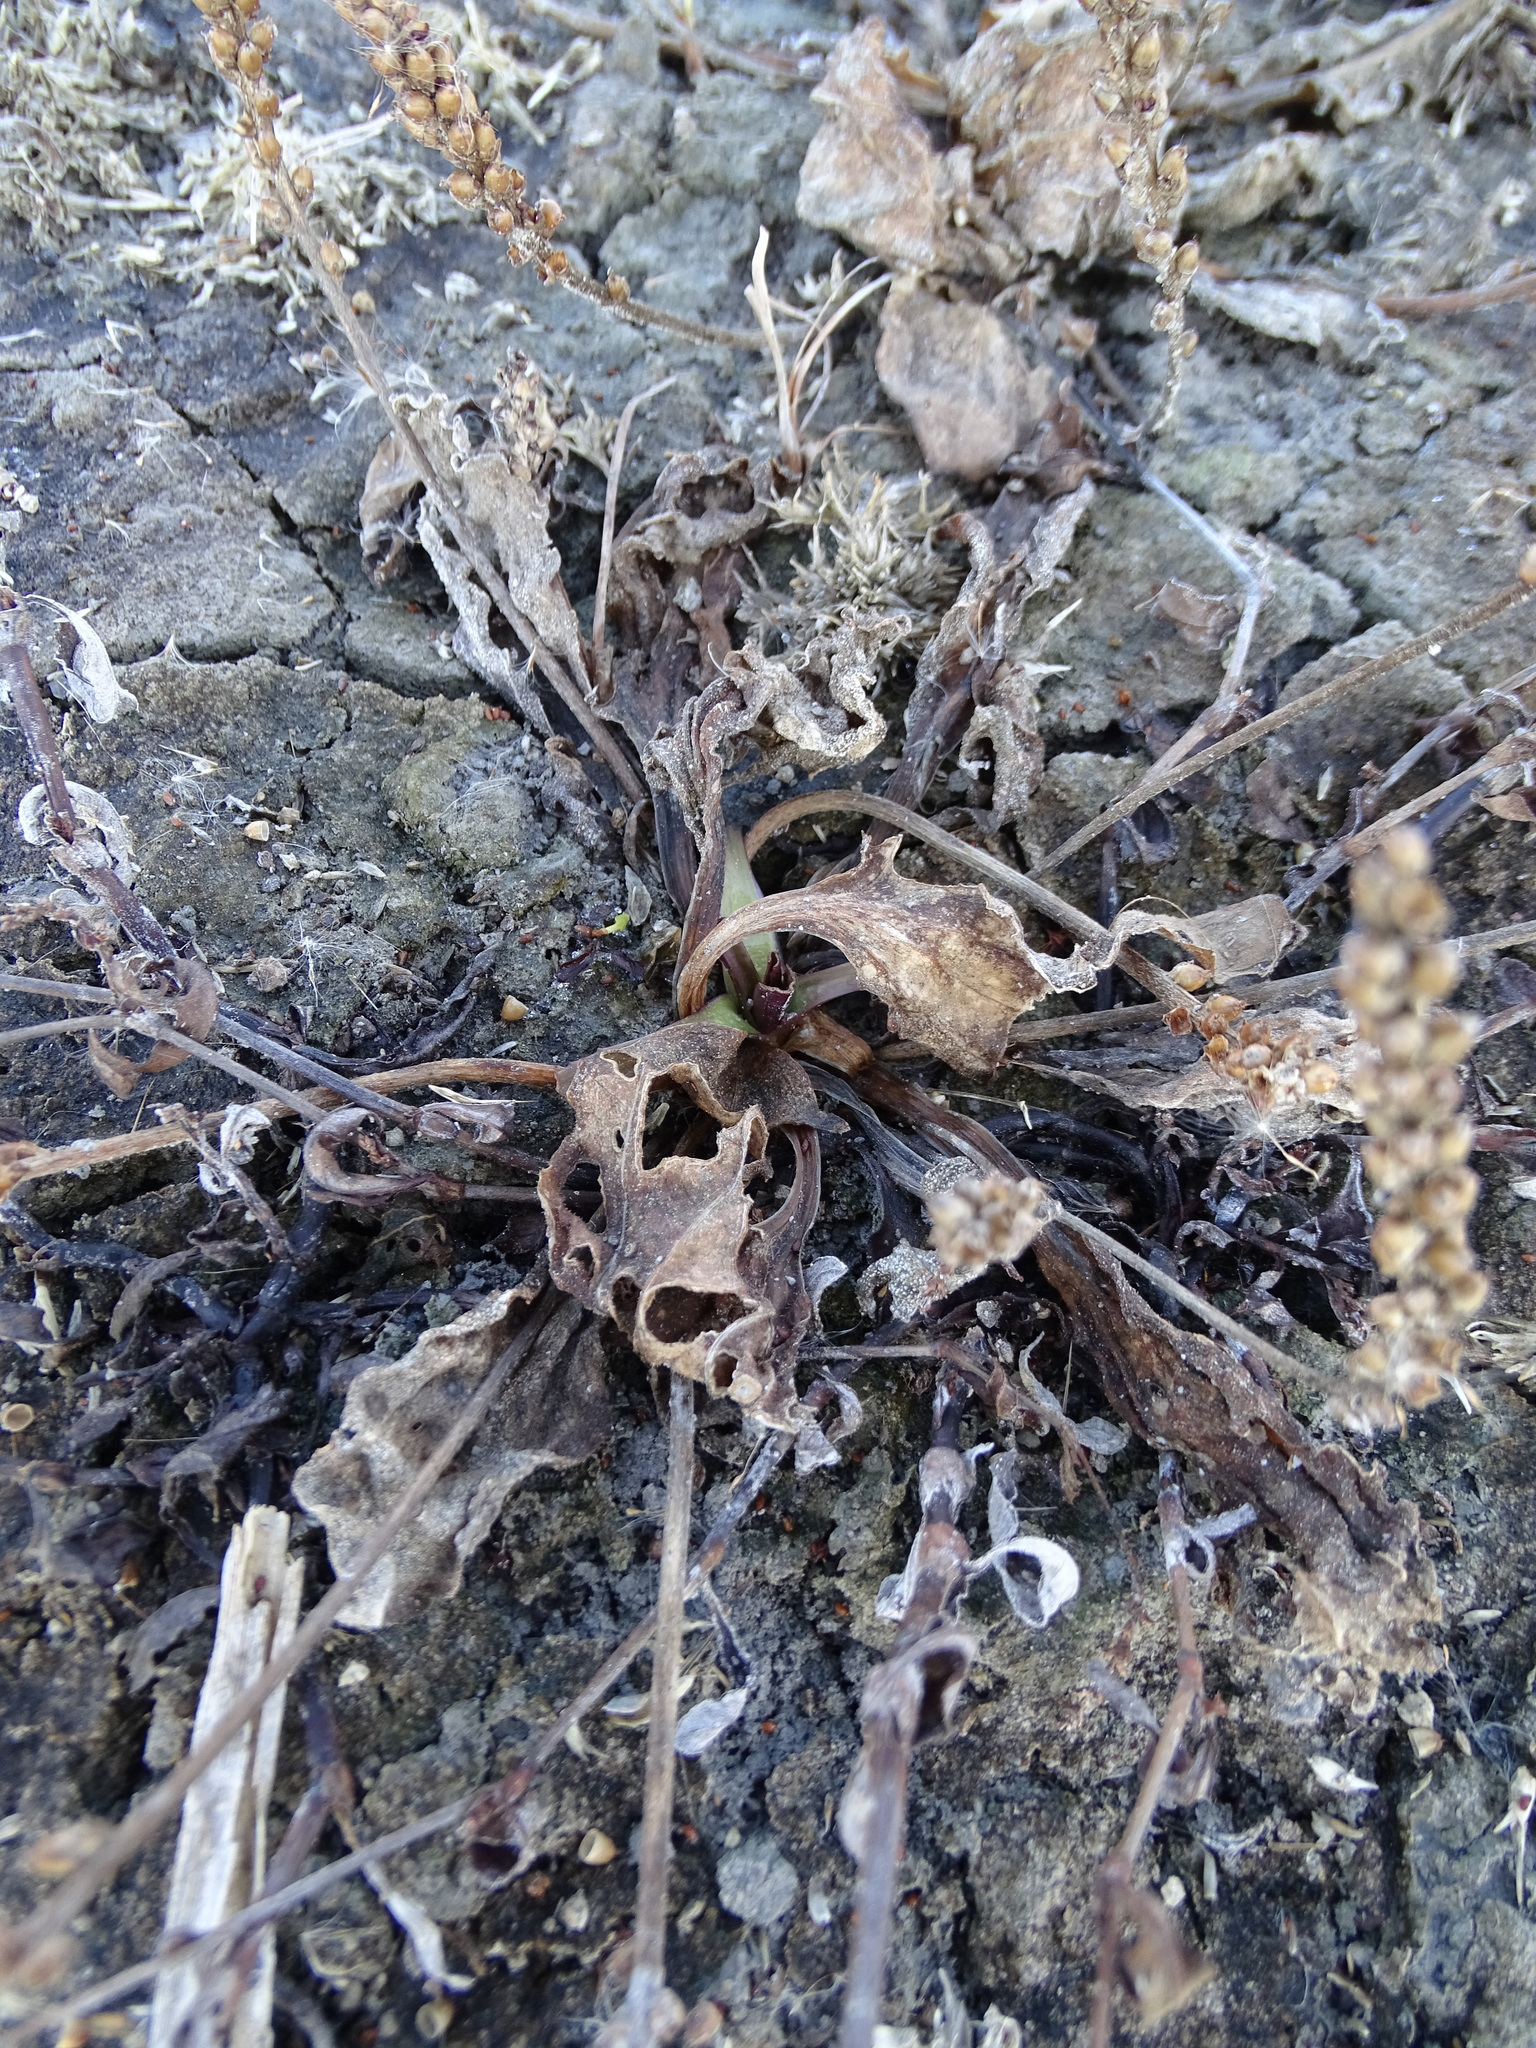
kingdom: Plantae
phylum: Tracheophyta
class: Magnoliopsida
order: Lamiales
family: Plantaginaceae
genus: Plantago
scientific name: Plantago major
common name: Common plantain
